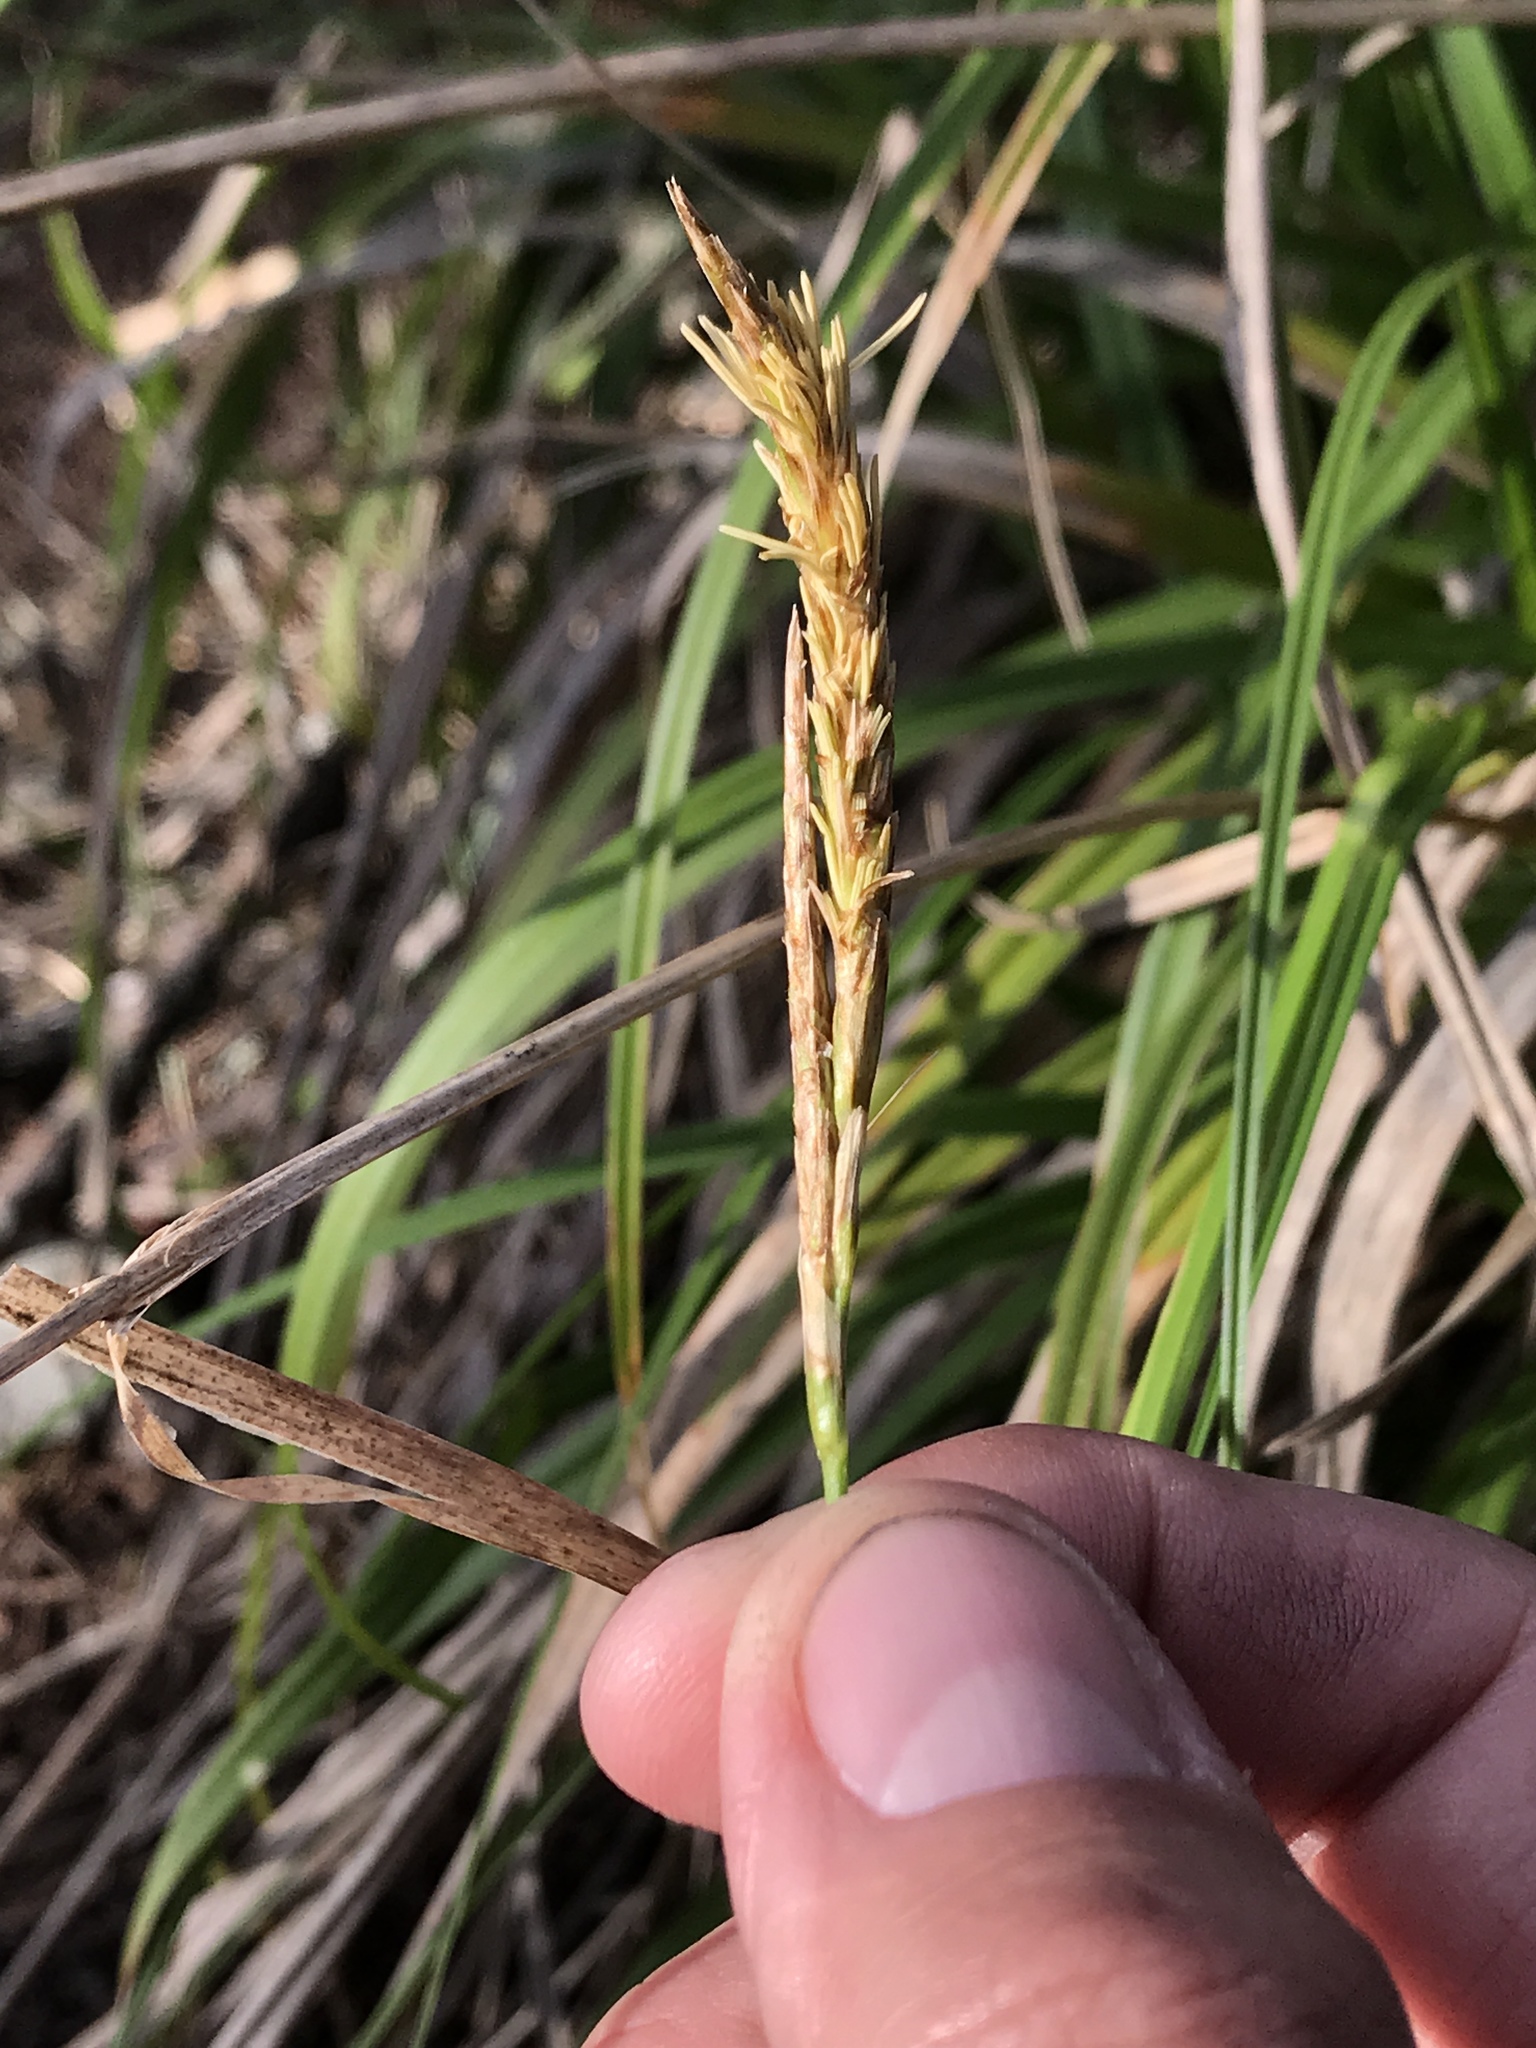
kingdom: Plantae
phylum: Tracheophyta
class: Liliopsida
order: Poales
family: Cyperaceae
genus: Carex
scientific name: Carex obispoensis
